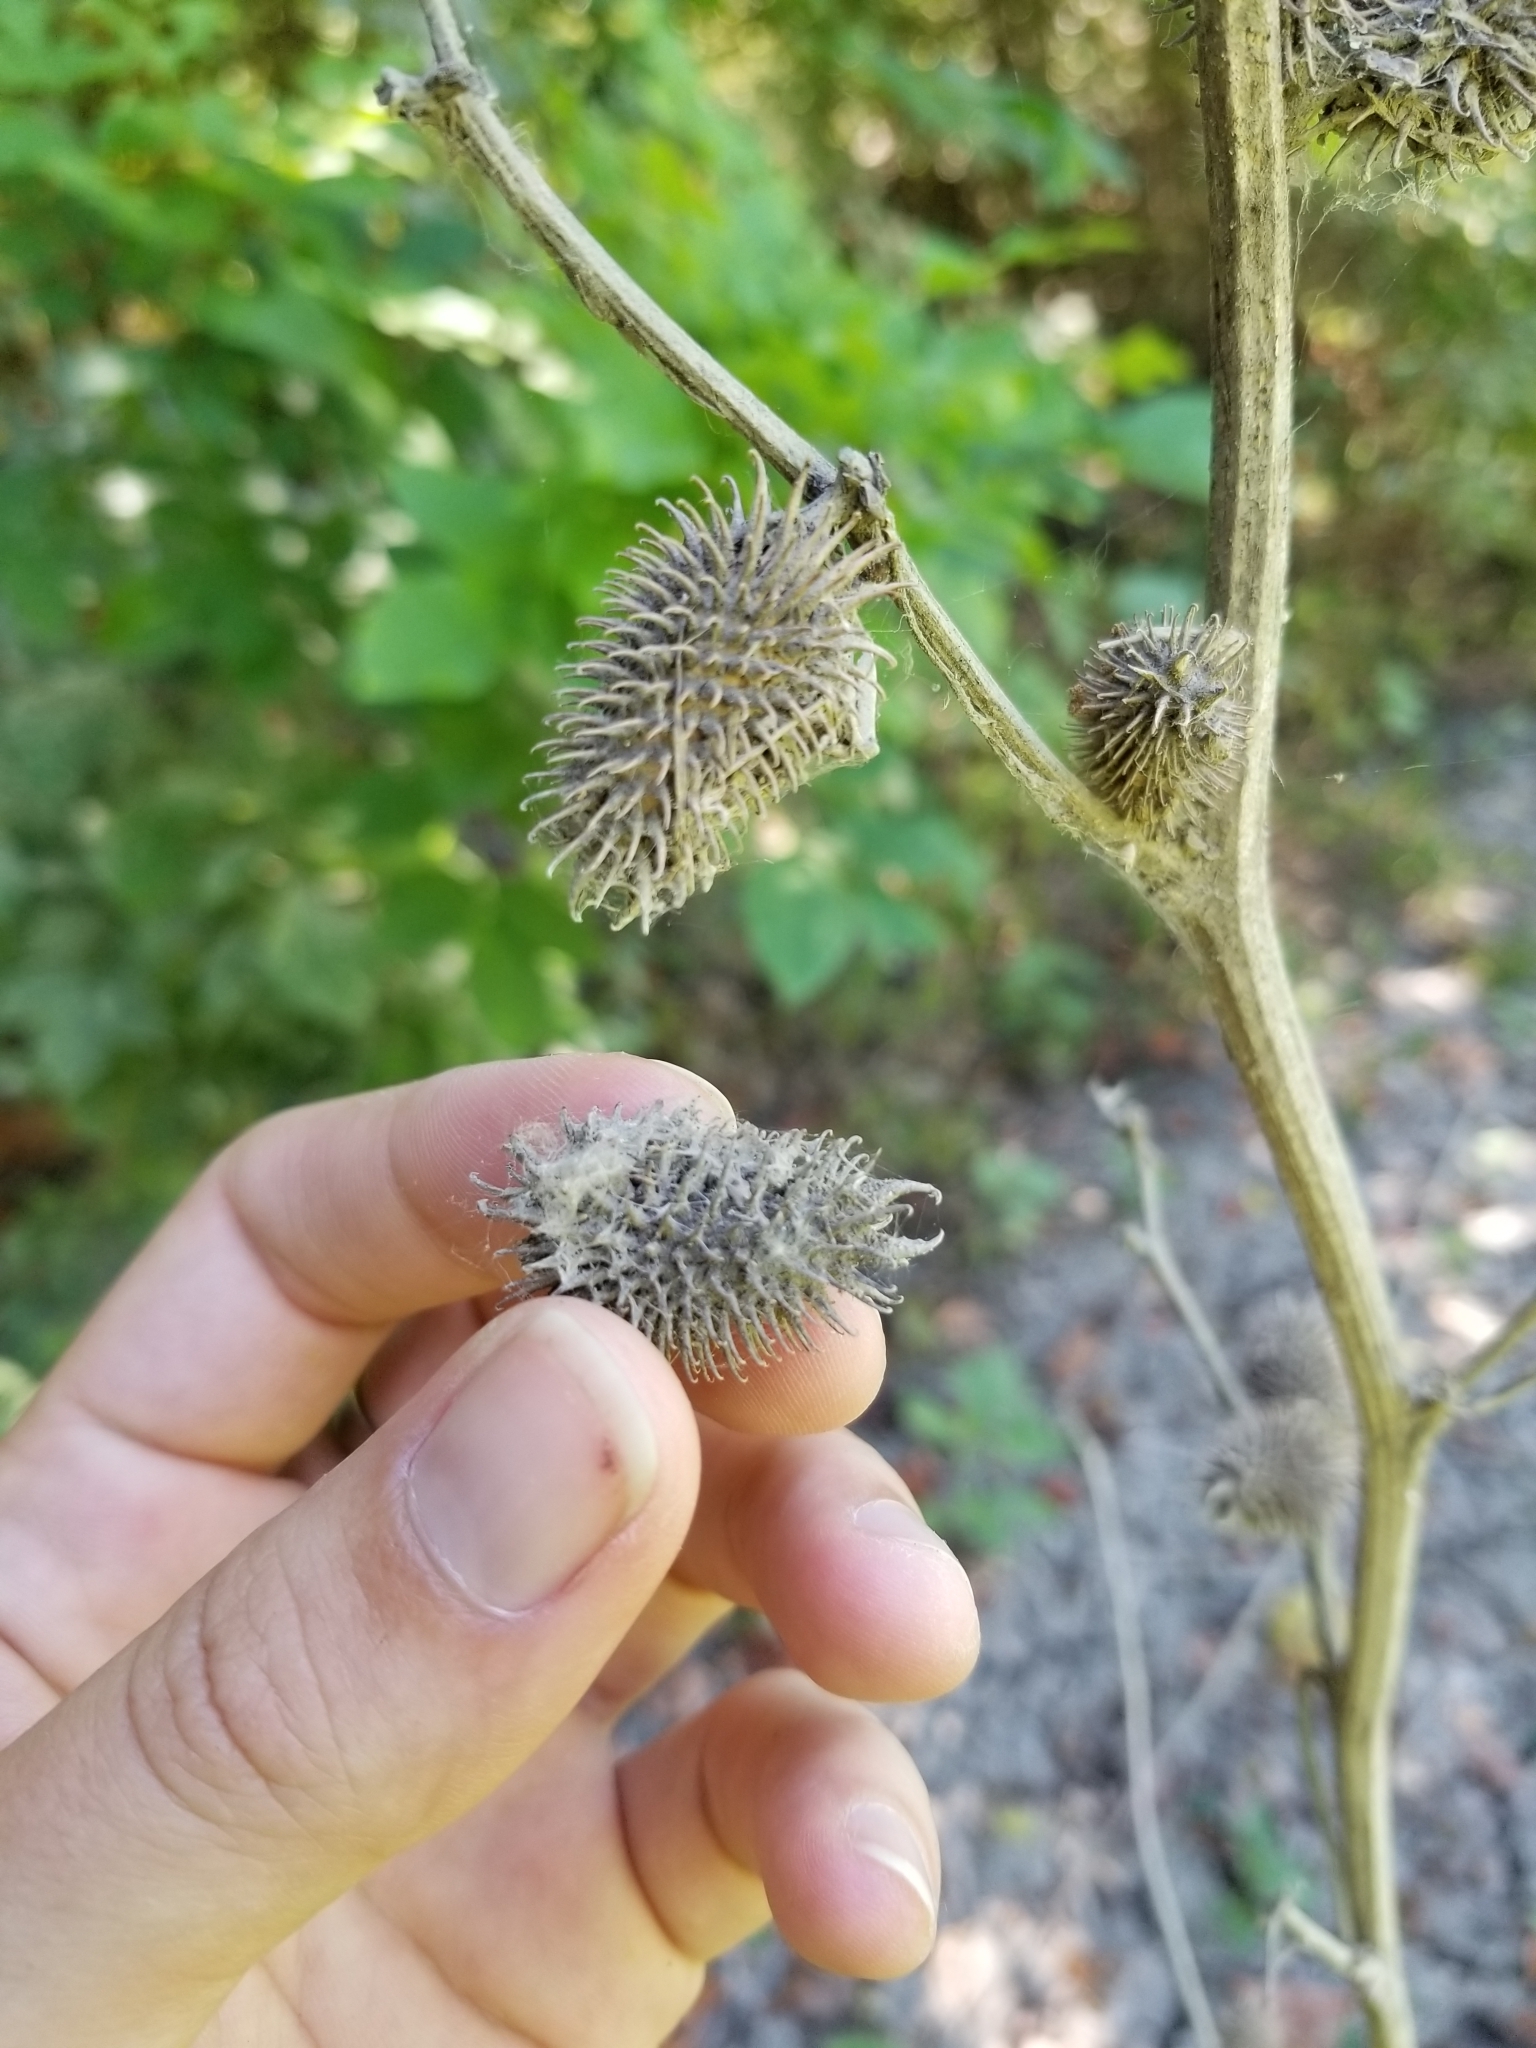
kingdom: Plantae
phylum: Tracheophyta
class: Magnoliopsida
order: Asterales
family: Asteraceae
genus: Xanthium
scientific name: Xanthium strumarium
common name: Rough cocklebur
